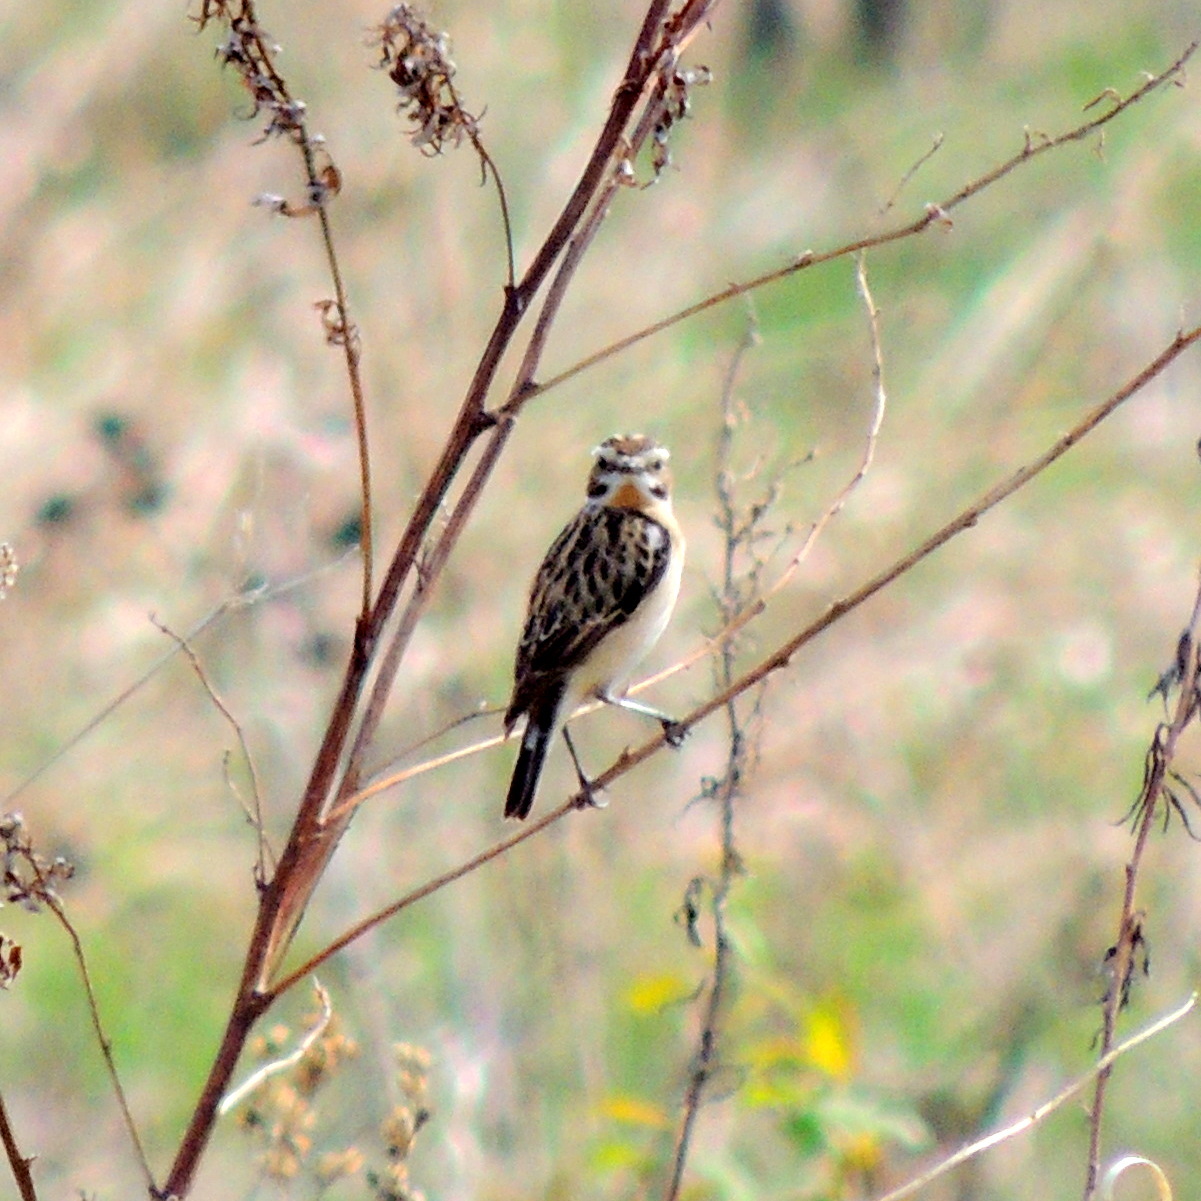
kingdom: Animalia
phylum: Chordata
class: Aves
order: Passeriformes
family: Muscicapidae
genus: Saxicola
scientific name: Saxicola rubetra
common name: Whinchat
